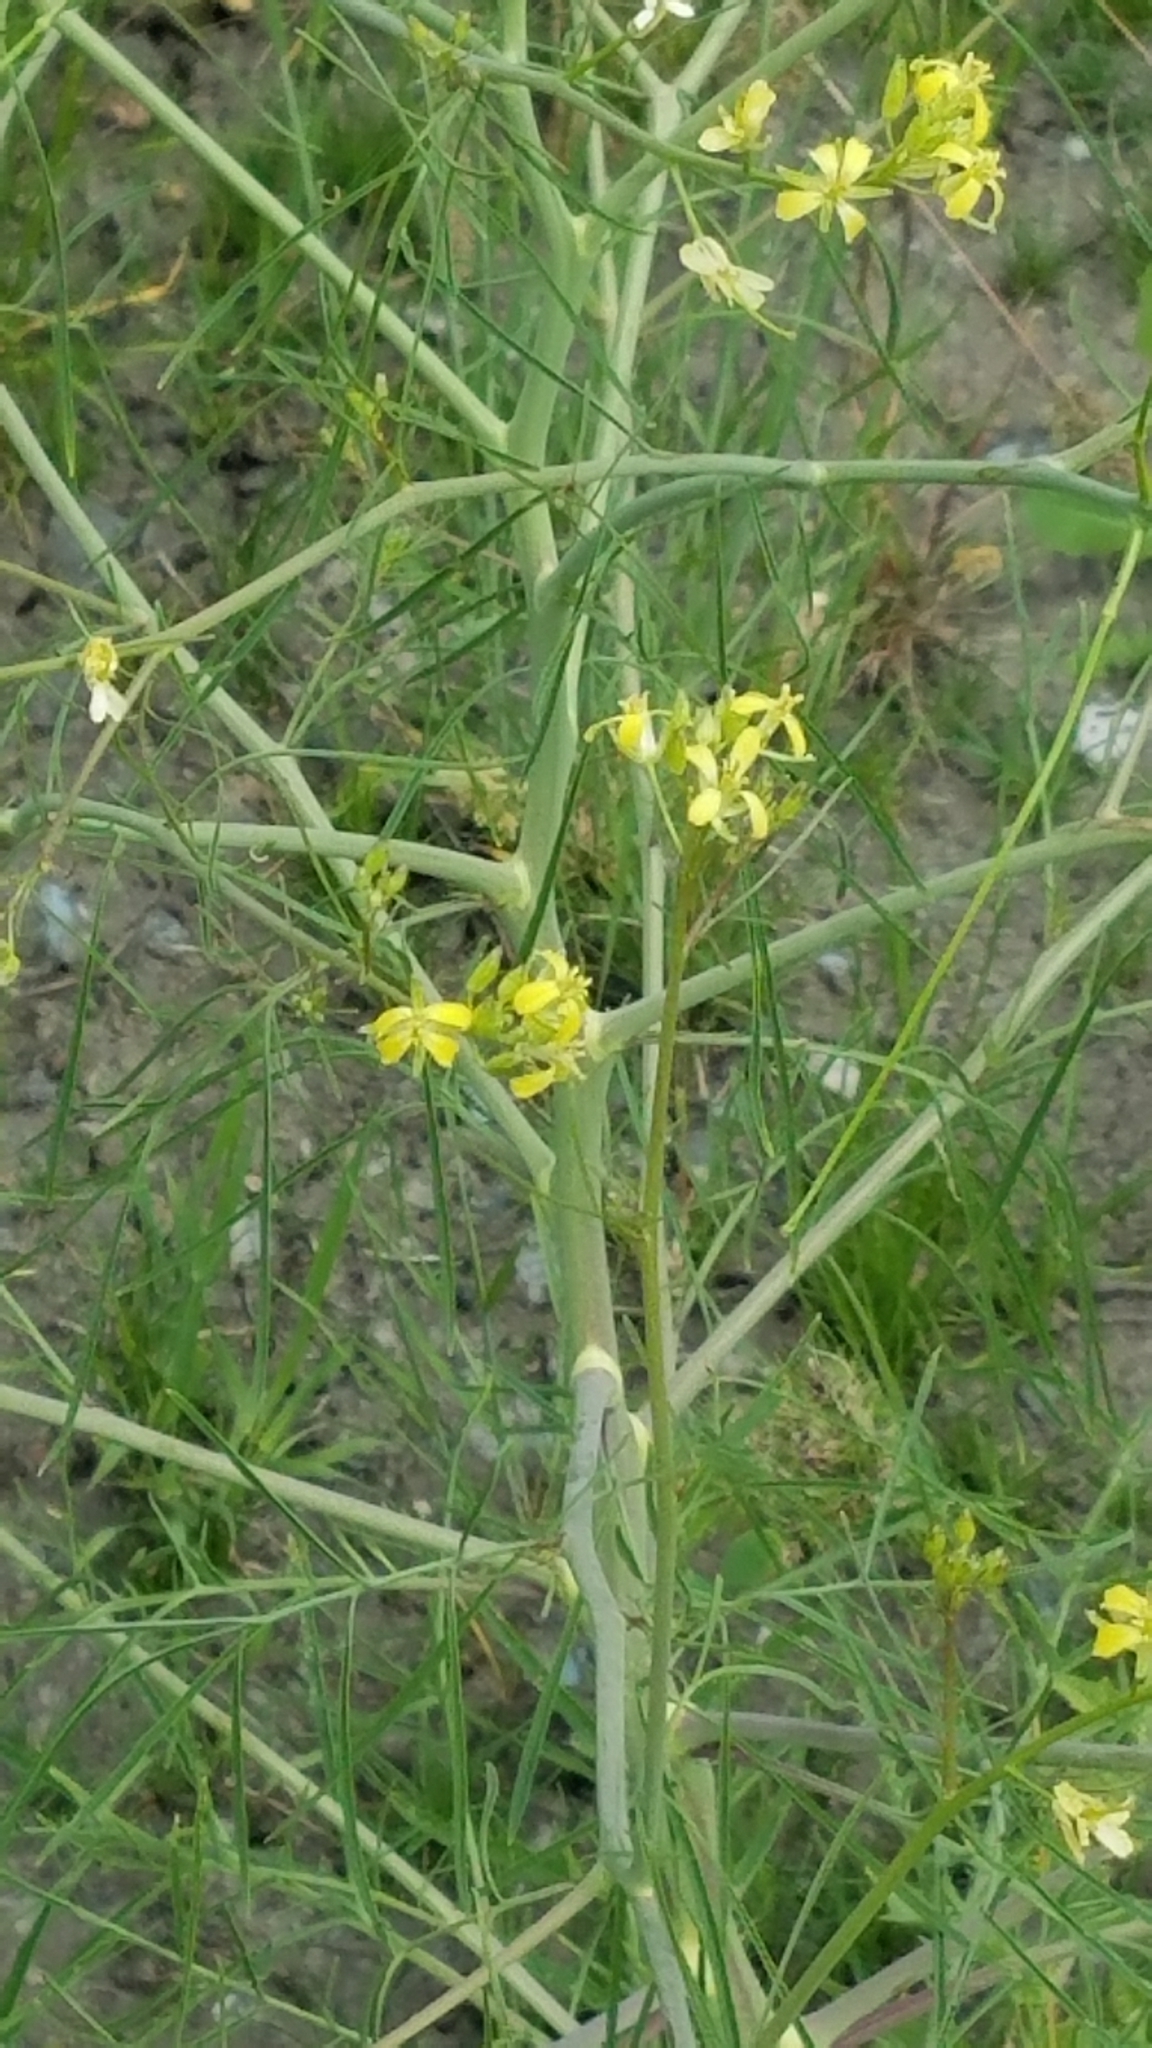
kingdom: Plantae
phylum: Tracheophyta
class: Magnoliopsida
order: Brassicales
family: Brassicaceae
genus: Sisymbrium
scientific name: Sisymbrium altissimum
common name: Tall rocket
